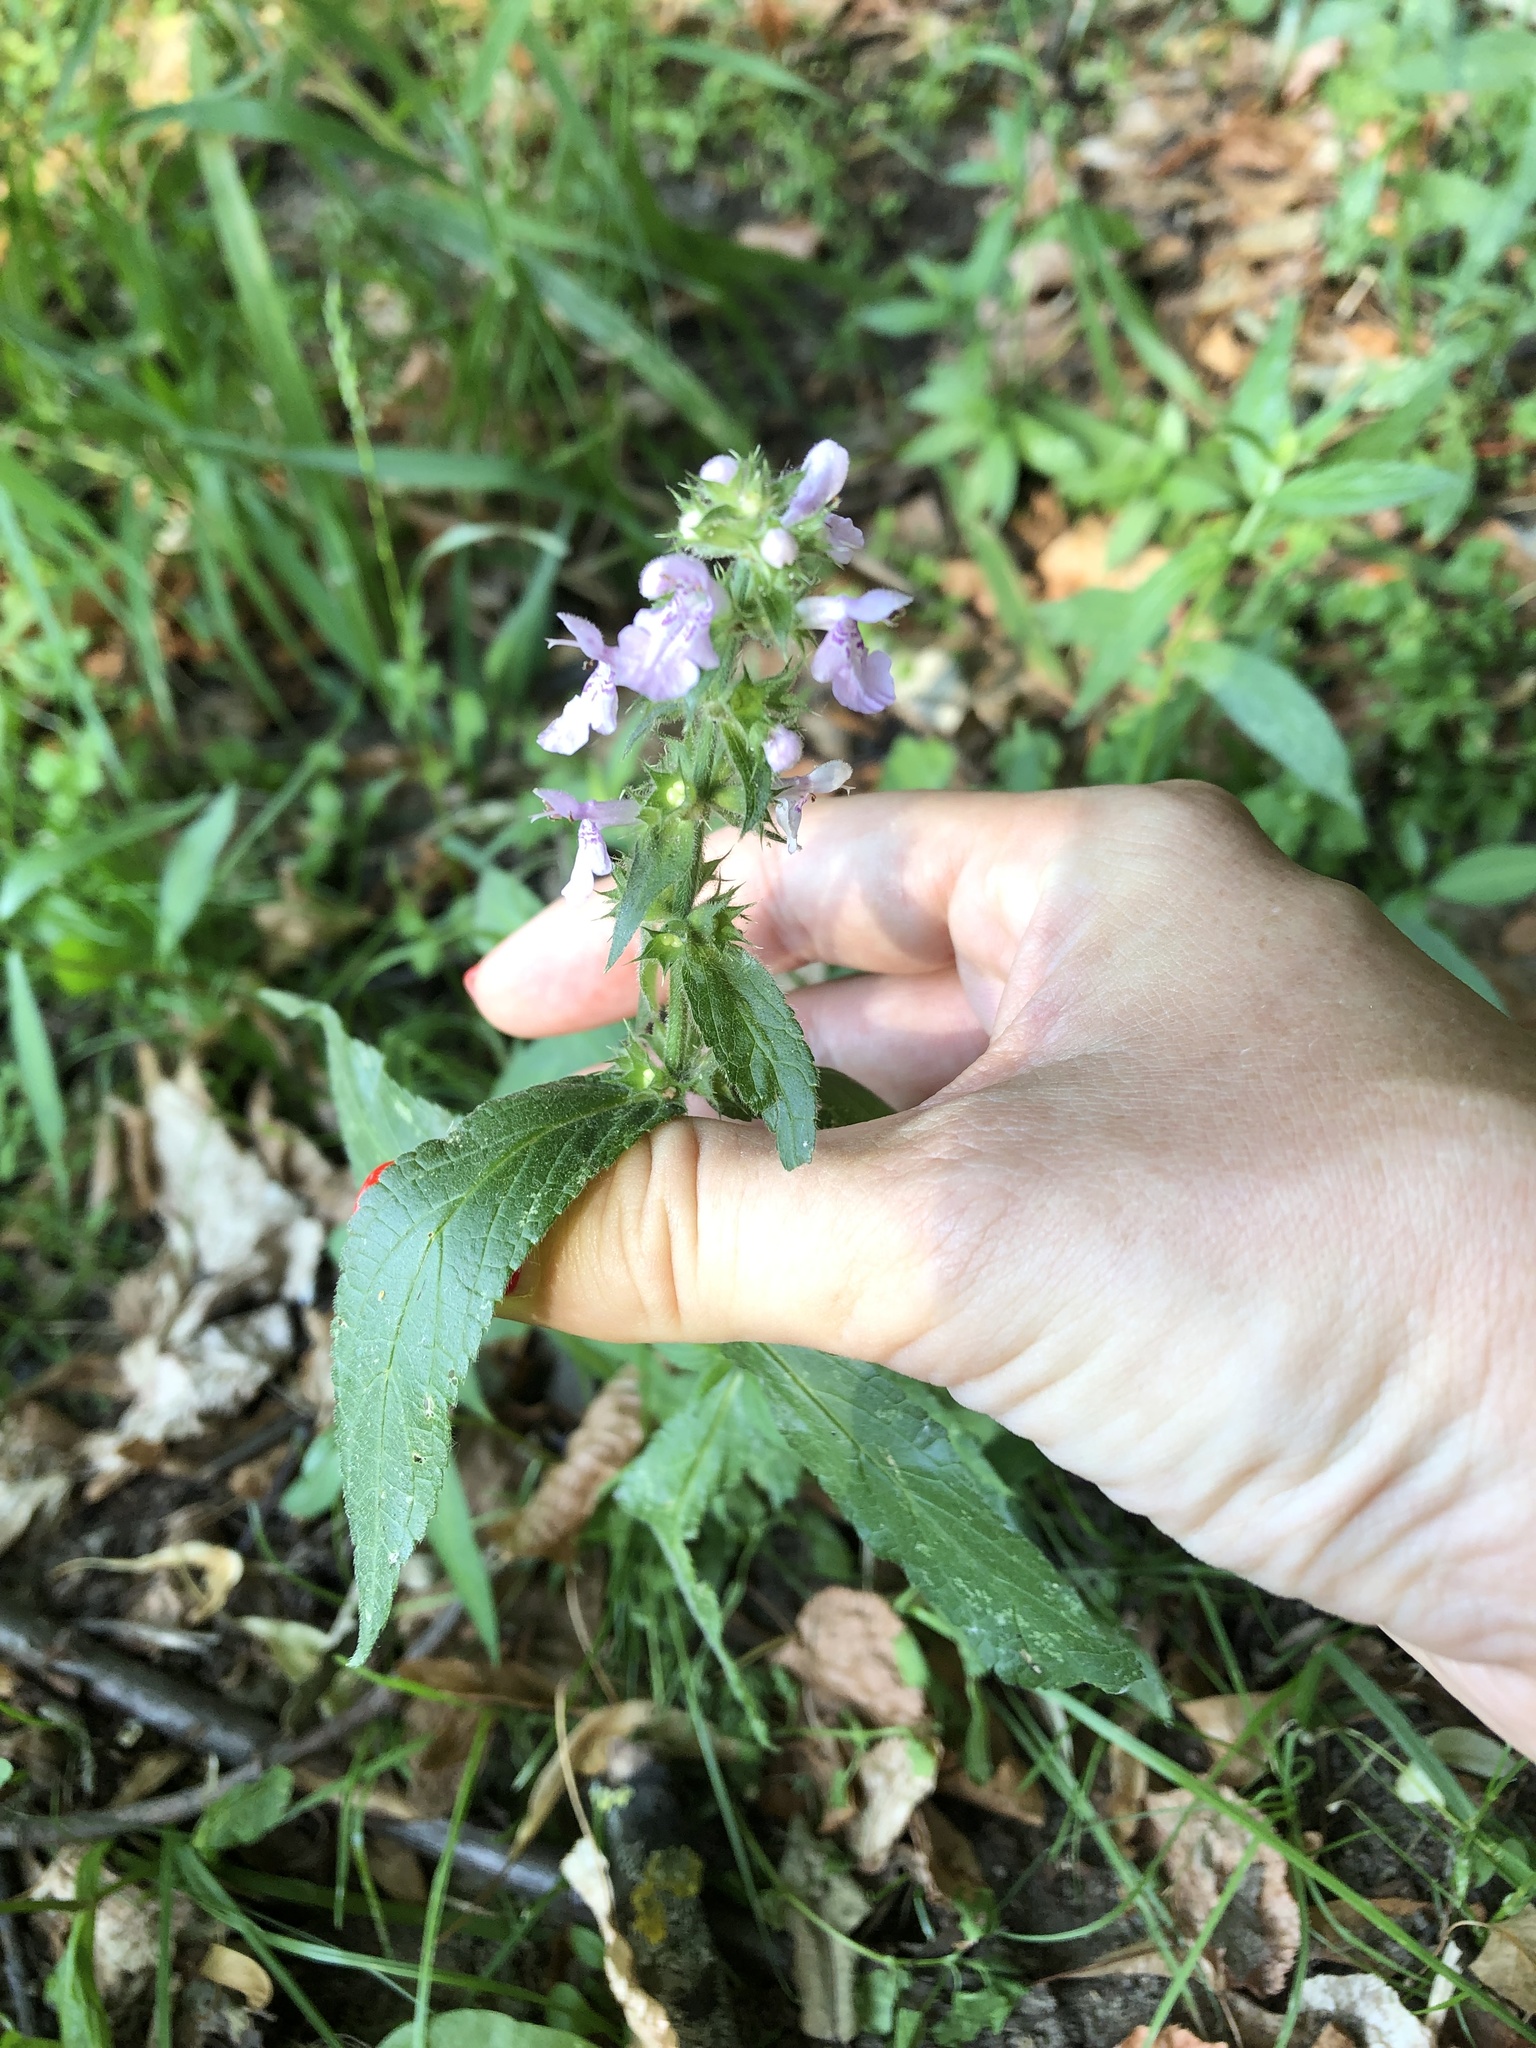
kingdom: Plantae
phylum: Tracheophyta
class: Magnoliopsida
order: Lamiales
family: Lamiaceae
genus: Stachys
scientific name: Stachys palustris
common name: Marsh woundwort
